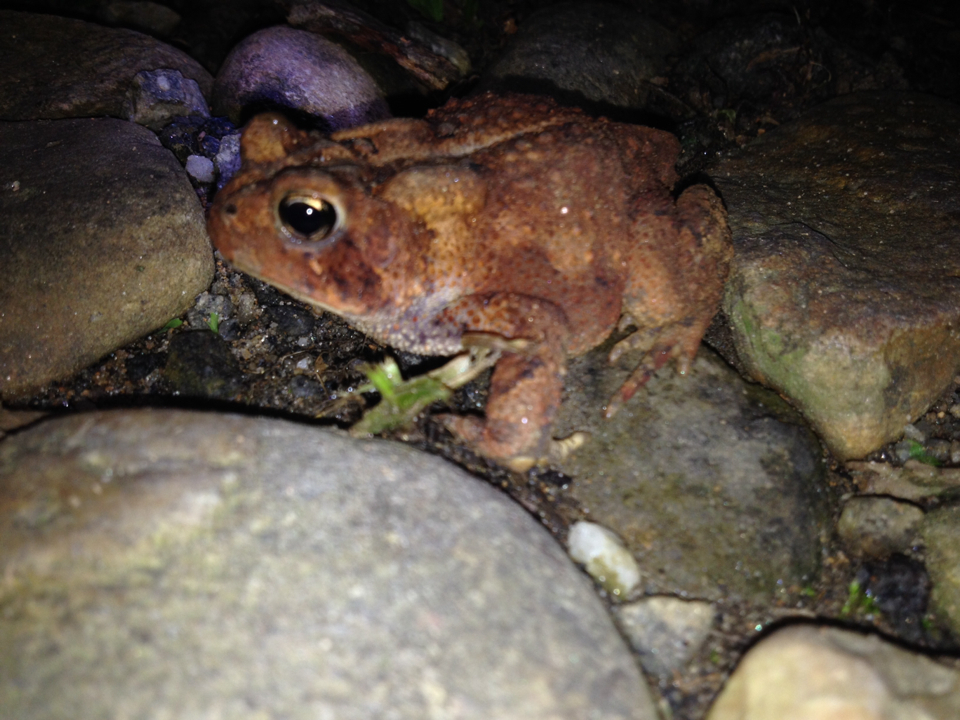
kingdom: Animalia
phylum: Chordata
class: Amphibia
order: Anura
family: Bufonidae
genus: Anaxyrus
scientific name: Anaxyrus americanus
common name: American toad
